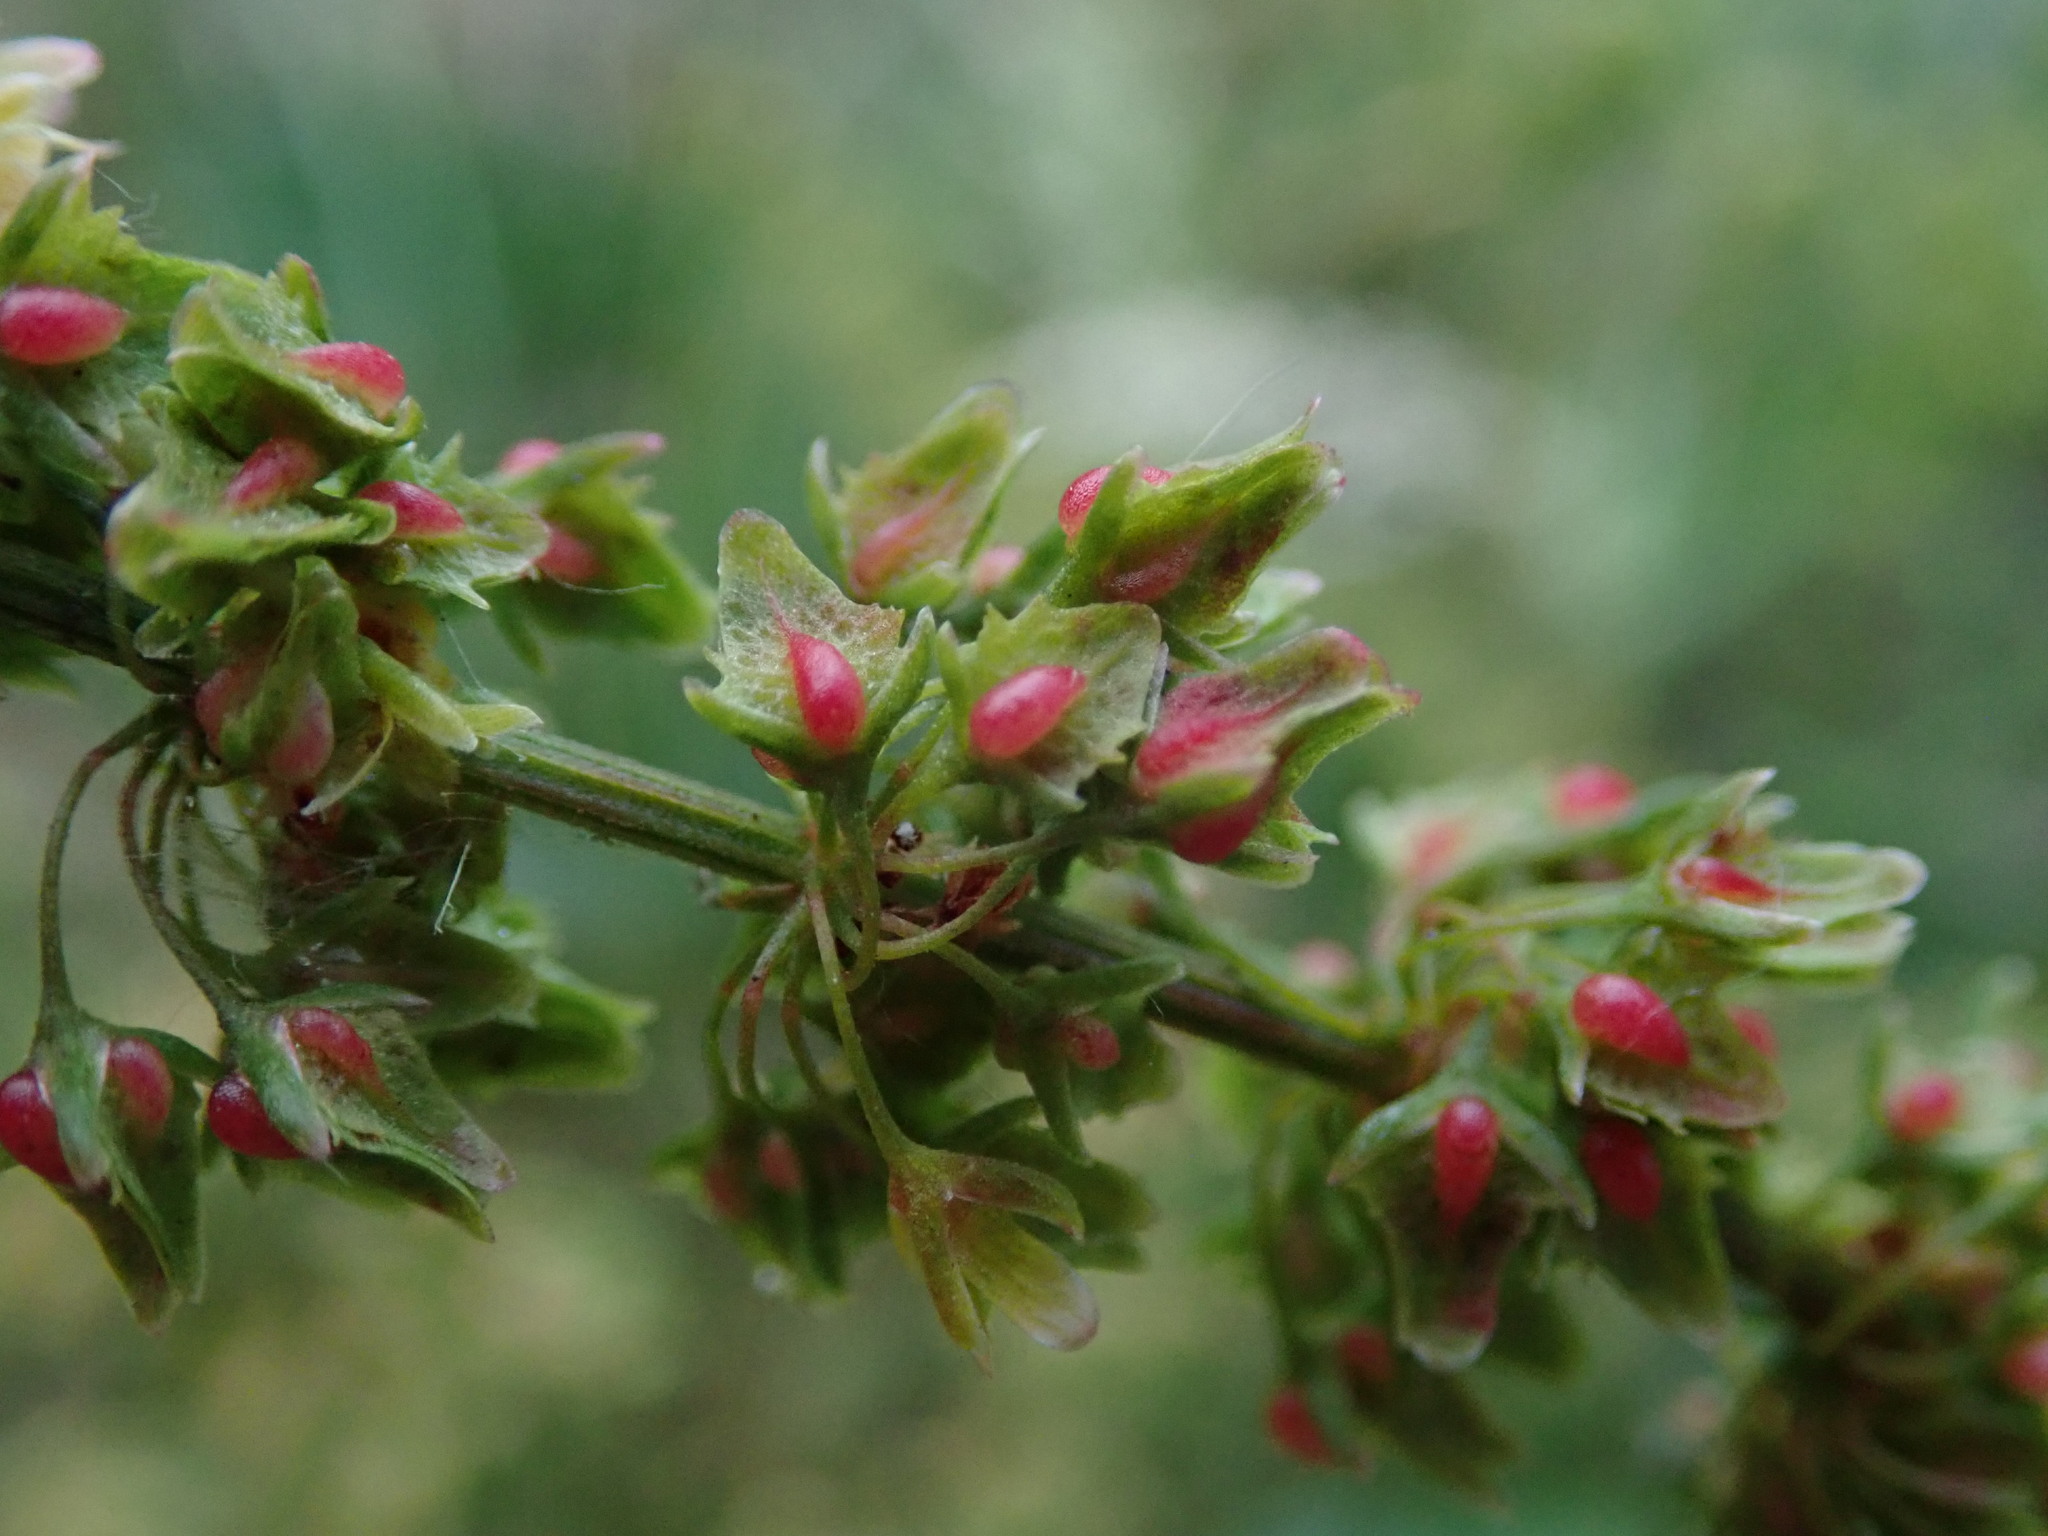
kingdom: Plantae
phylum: Tracheophyta
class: Magnoliopsida
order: Caryophyllales
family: Polygonaceae
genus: Rumex
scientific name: Rumex obtusifolius
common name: Bitter dock
